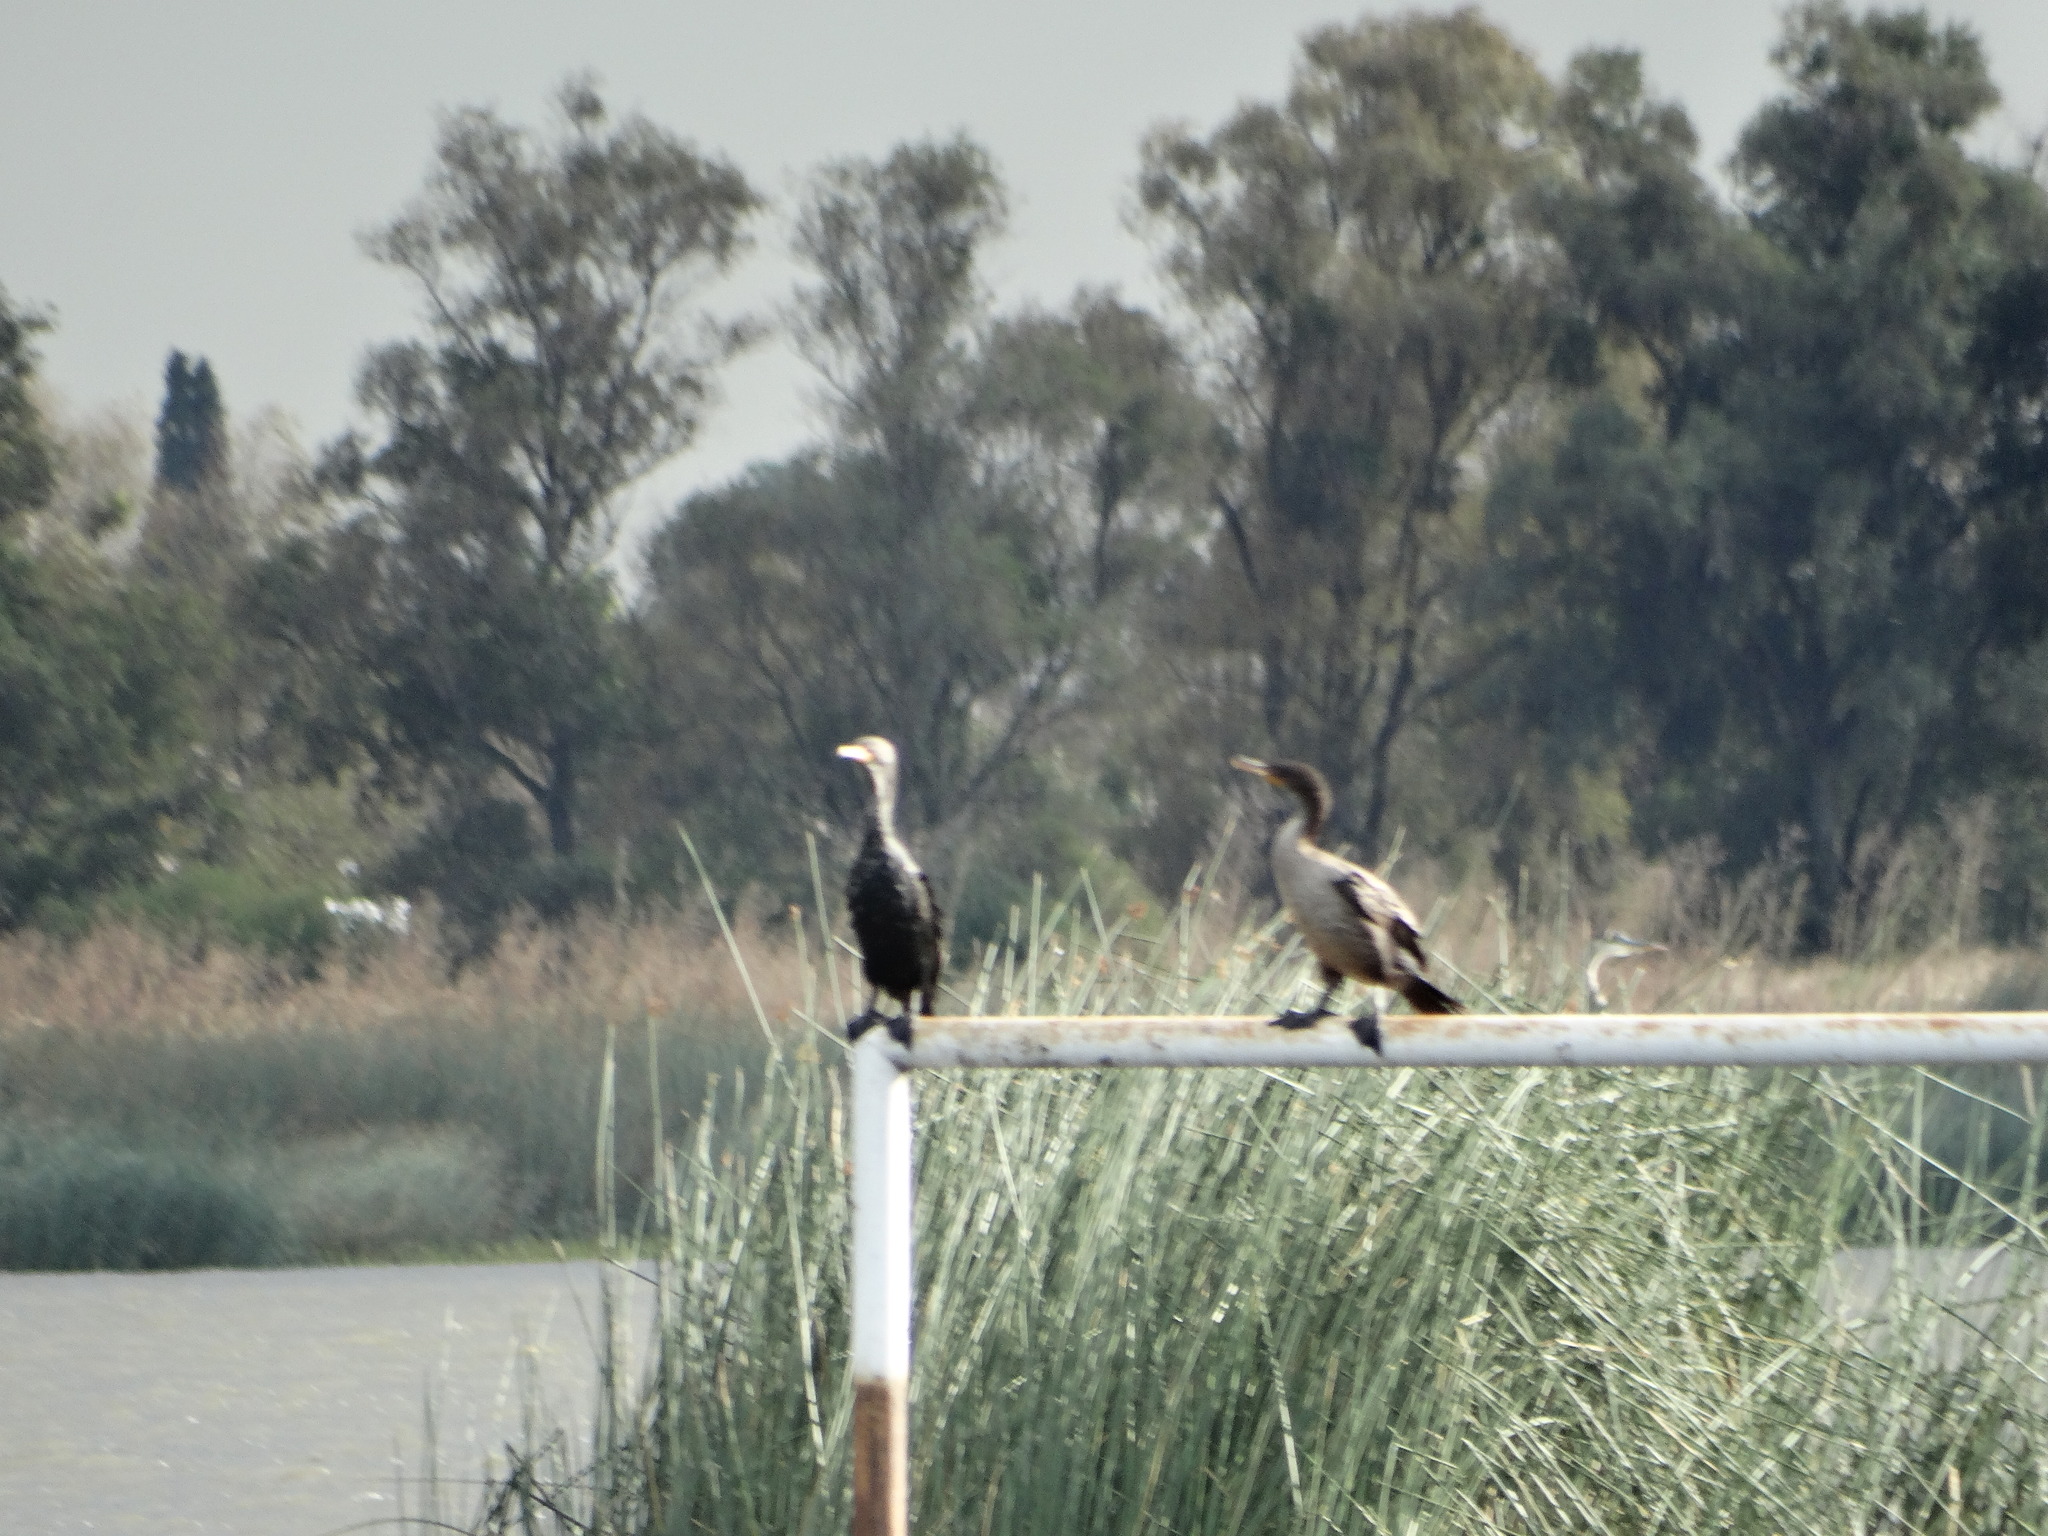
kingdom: Animalia
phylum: Chordata
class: Aves
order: Suliformes
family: Phalacrocoracidae
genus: Phalacrocorax
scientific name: Phalacrocorax auritus
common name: Double-crested cormorant
